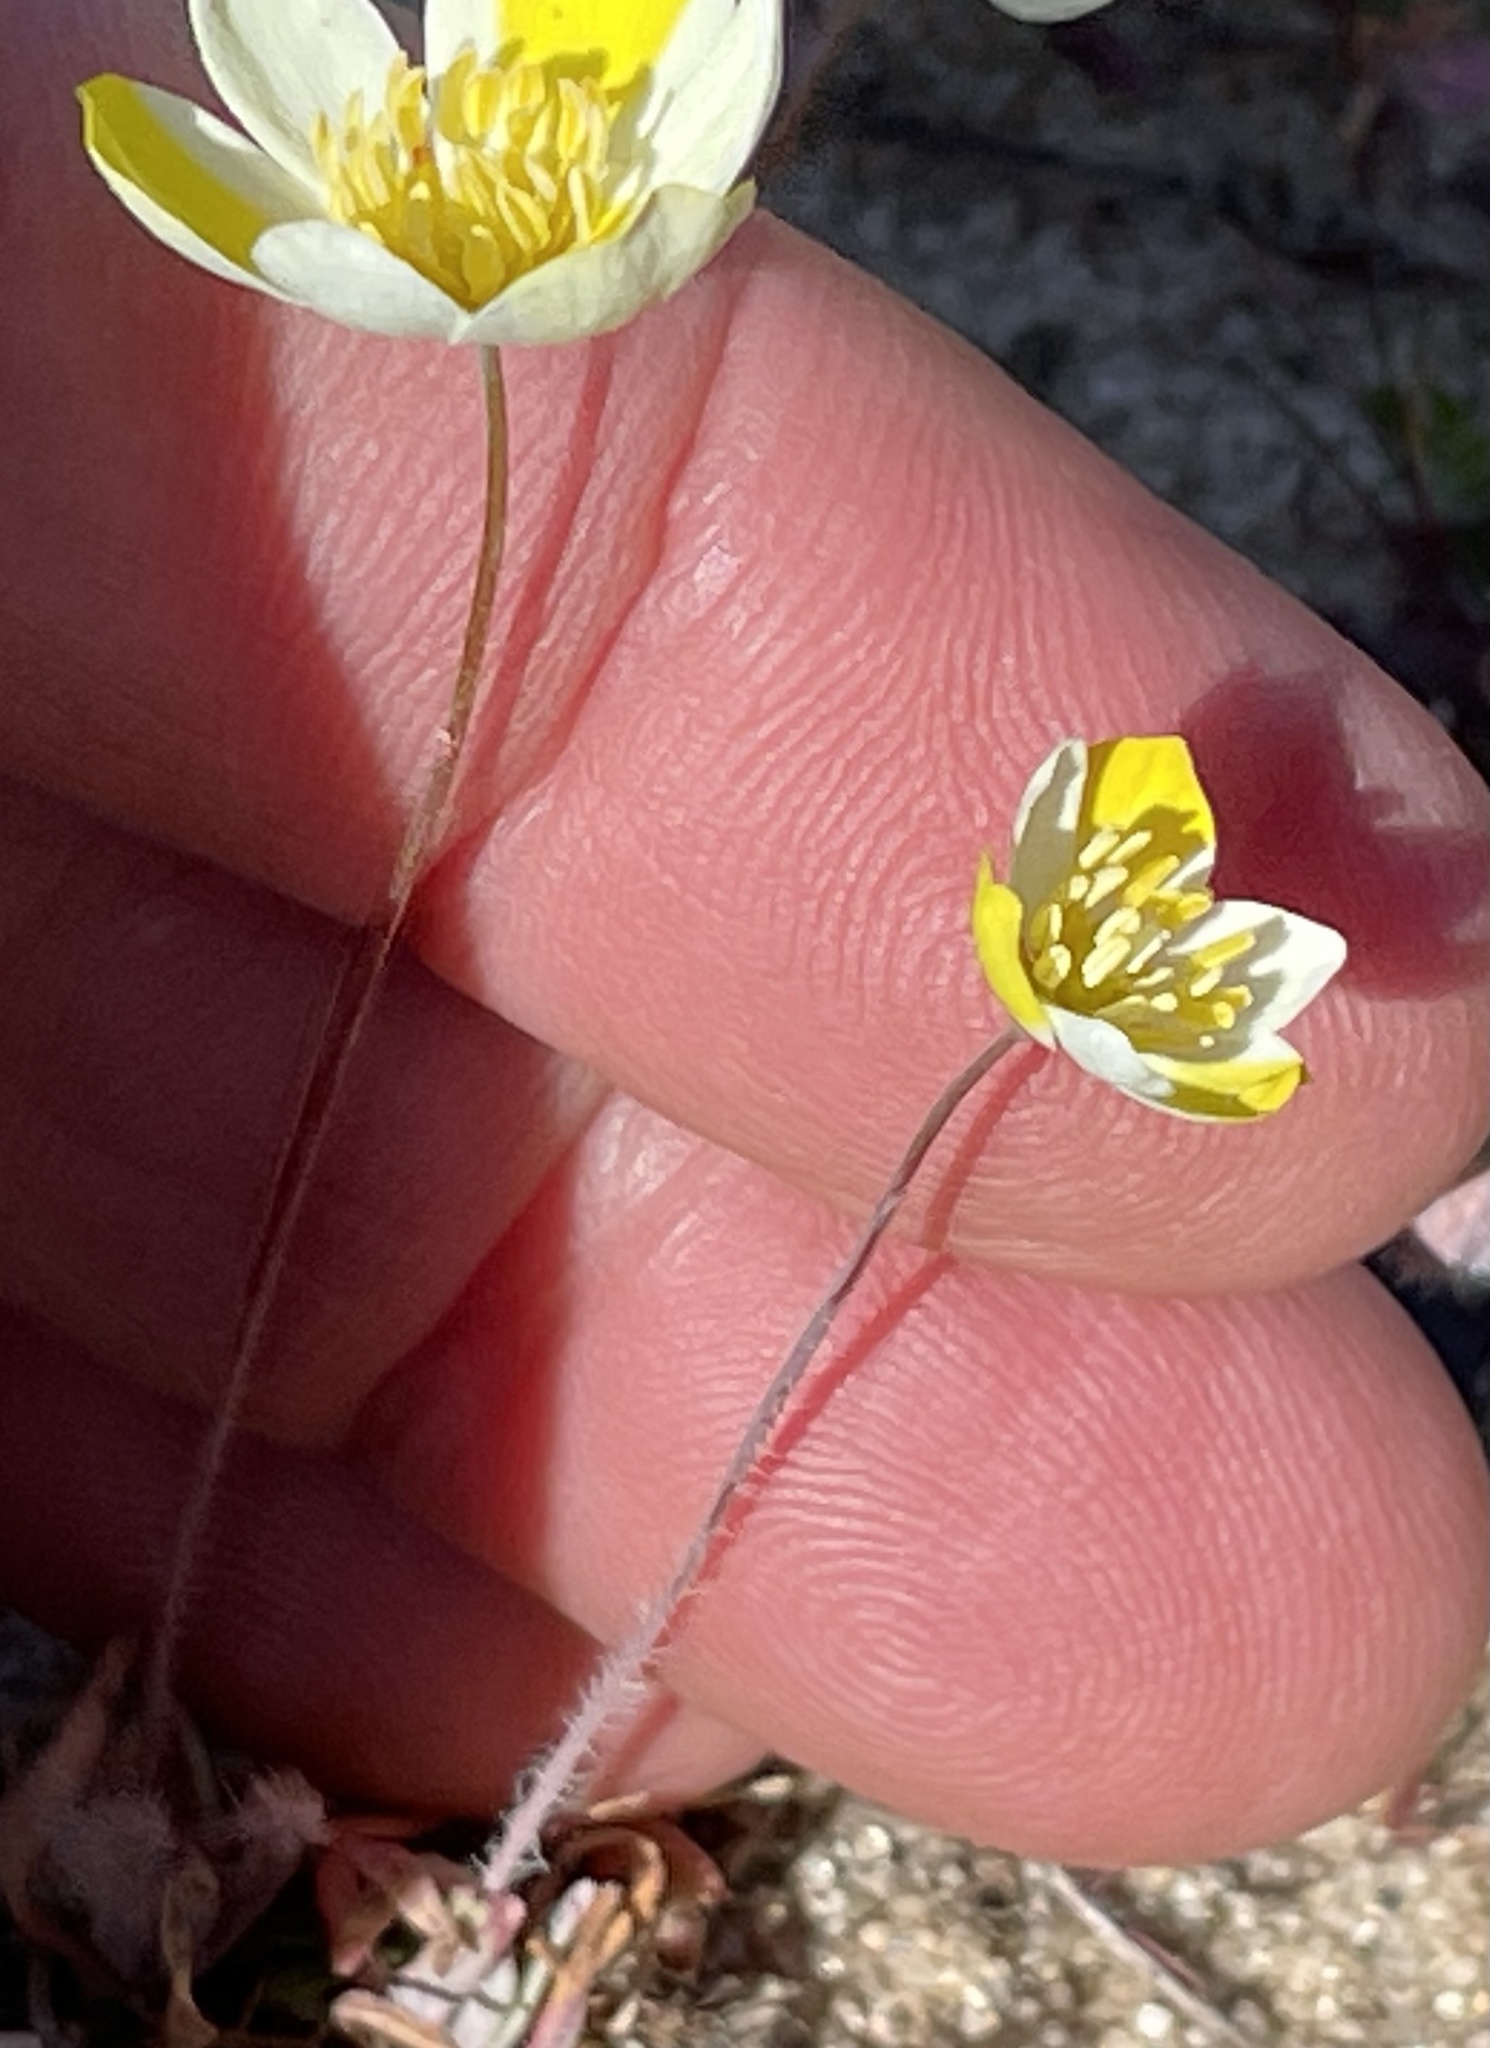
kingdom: Plantae
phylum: Tracheophyta
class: Magnoliopsida
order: Ranunculales
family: Papaveraceae
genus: Platystigma
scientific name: Platystigma lineare
